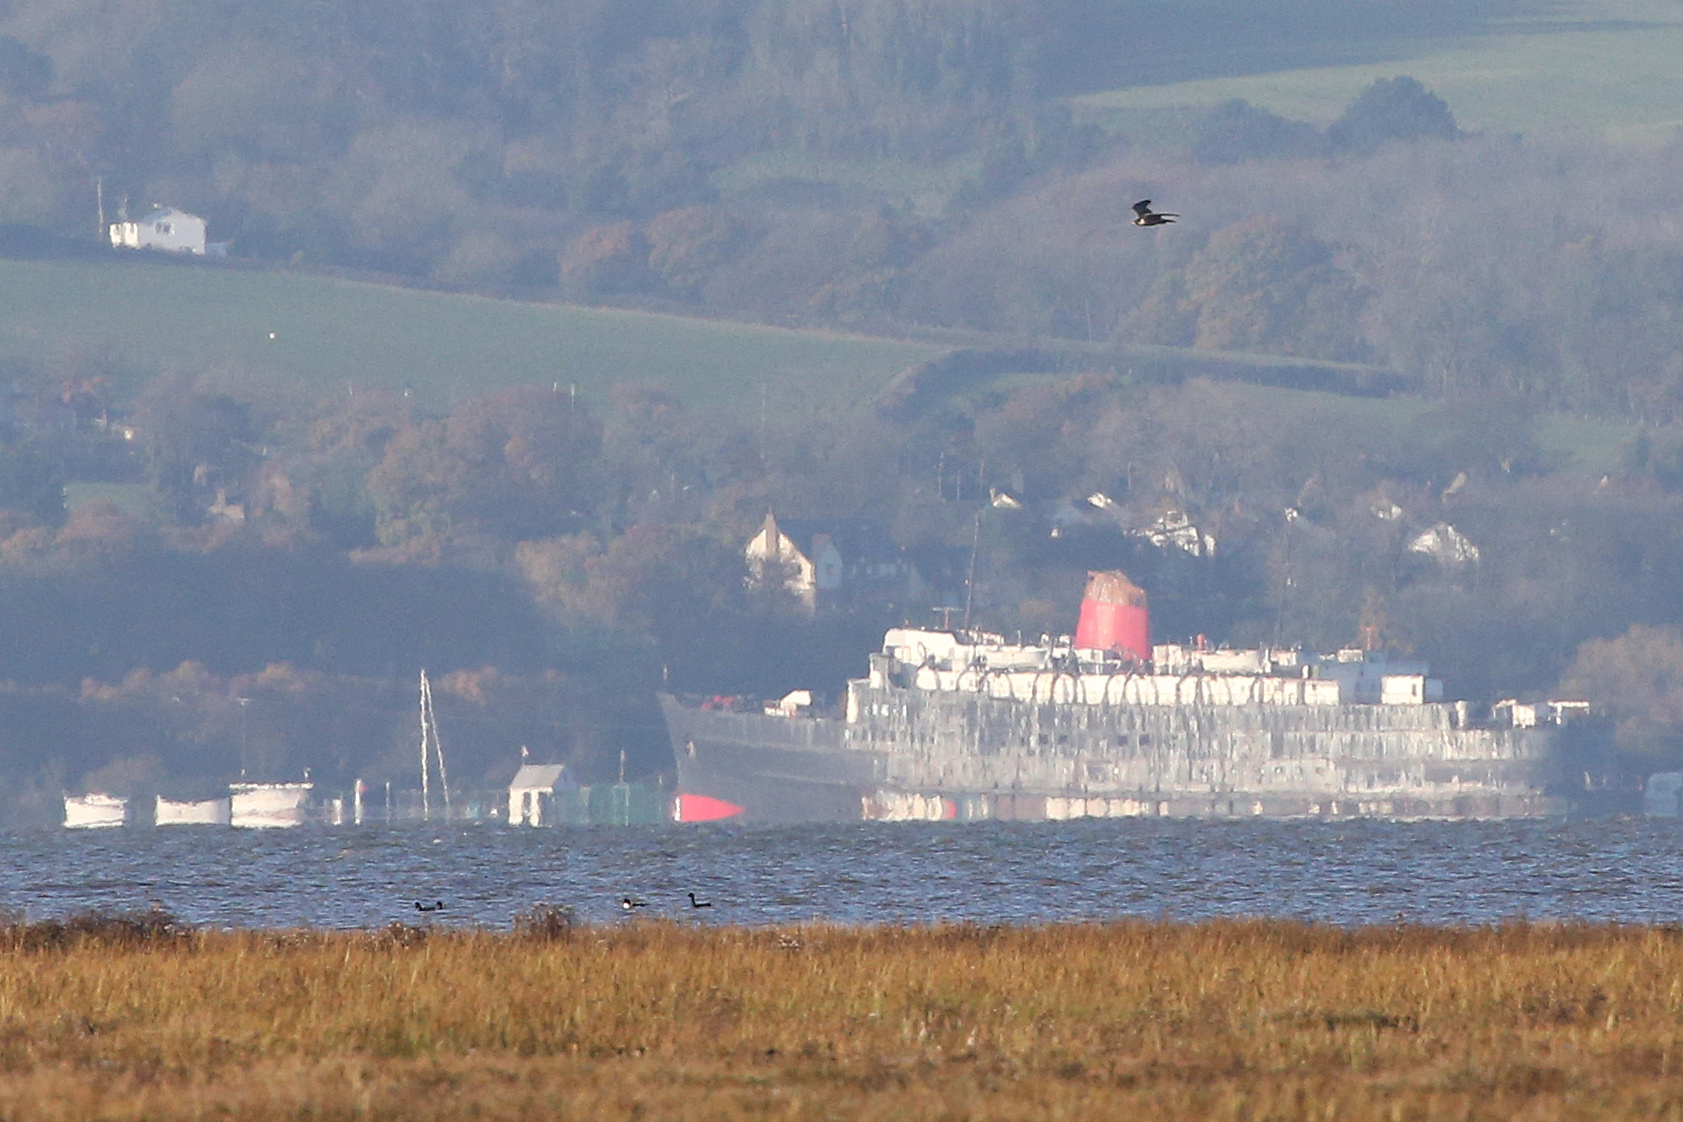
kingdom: Animalia
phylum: Chordata
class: Aves
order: Falconiformes
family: Falconidae
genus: Falco
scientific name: Falco peregrinus
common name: Peregrine falcon
